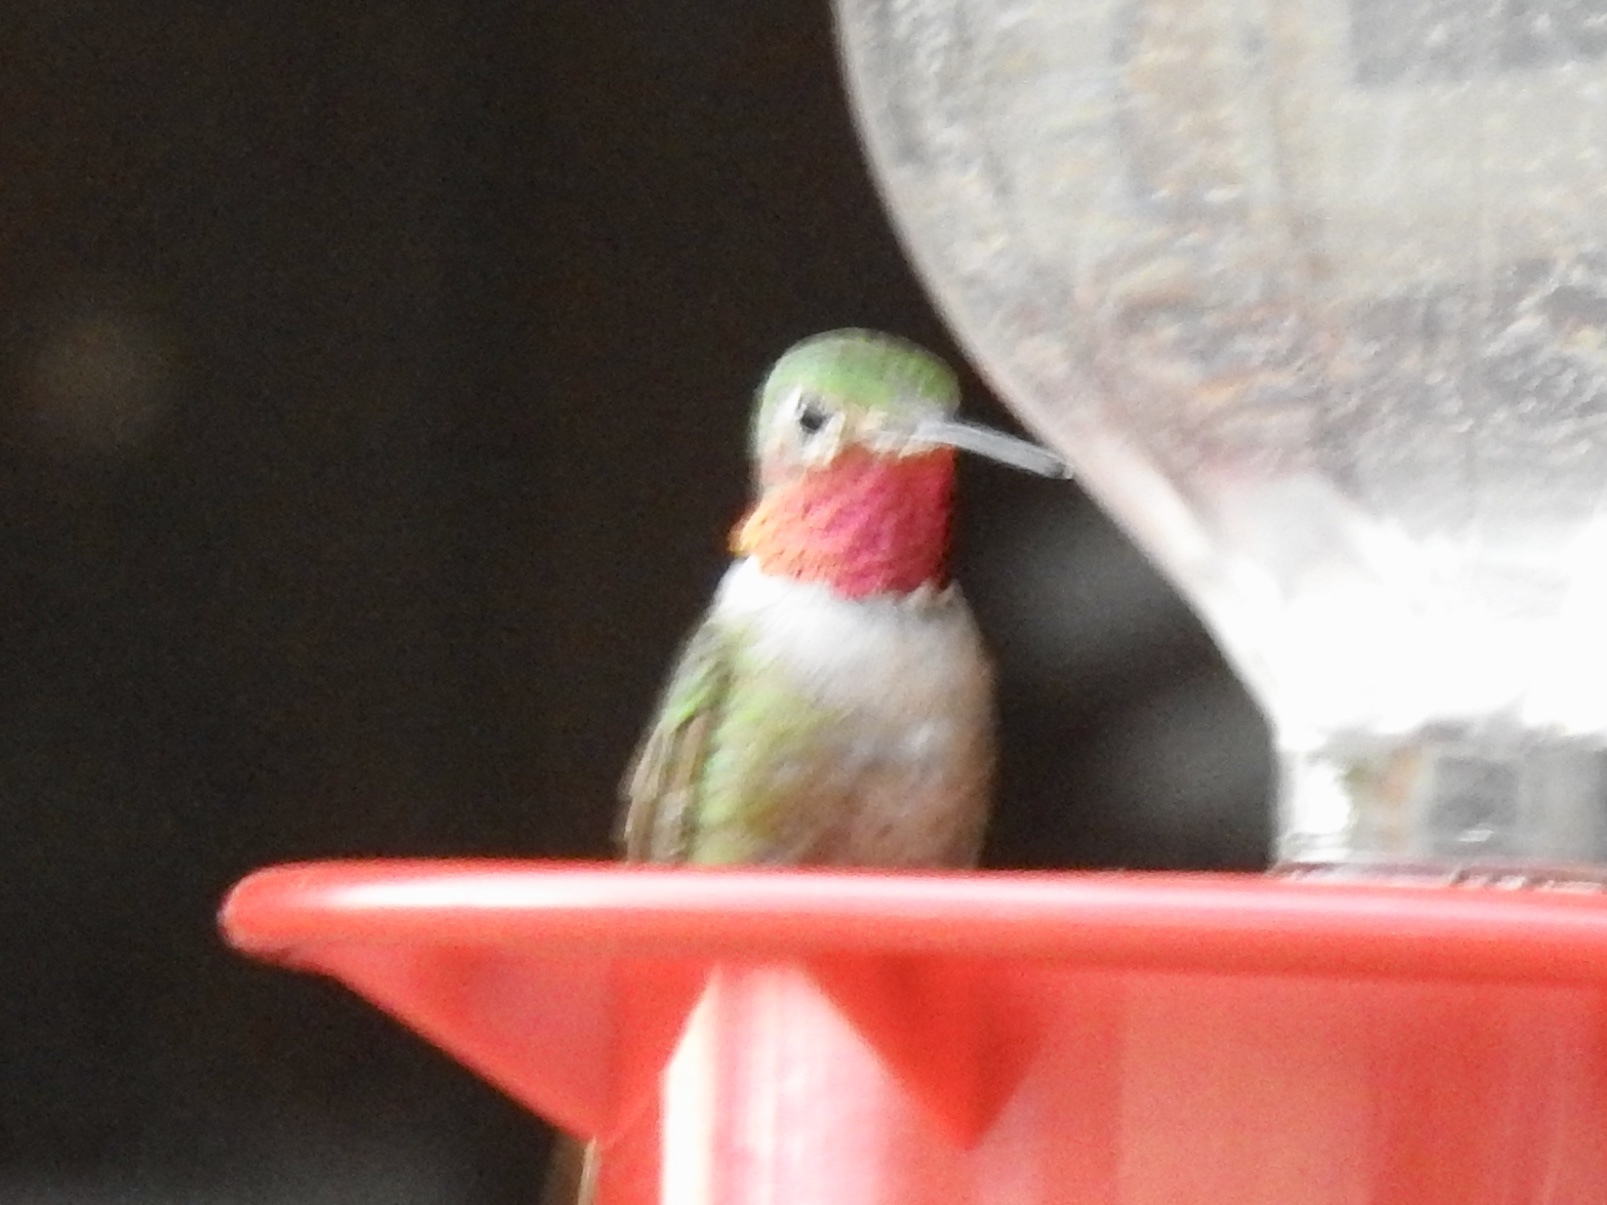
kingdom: Animalia
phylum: Chordata
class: Aves
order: Apodiformes
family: Trochilidae
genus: Selasphorus
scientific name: Selasphorus platycercus
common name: Broad-tailed hummingbird
